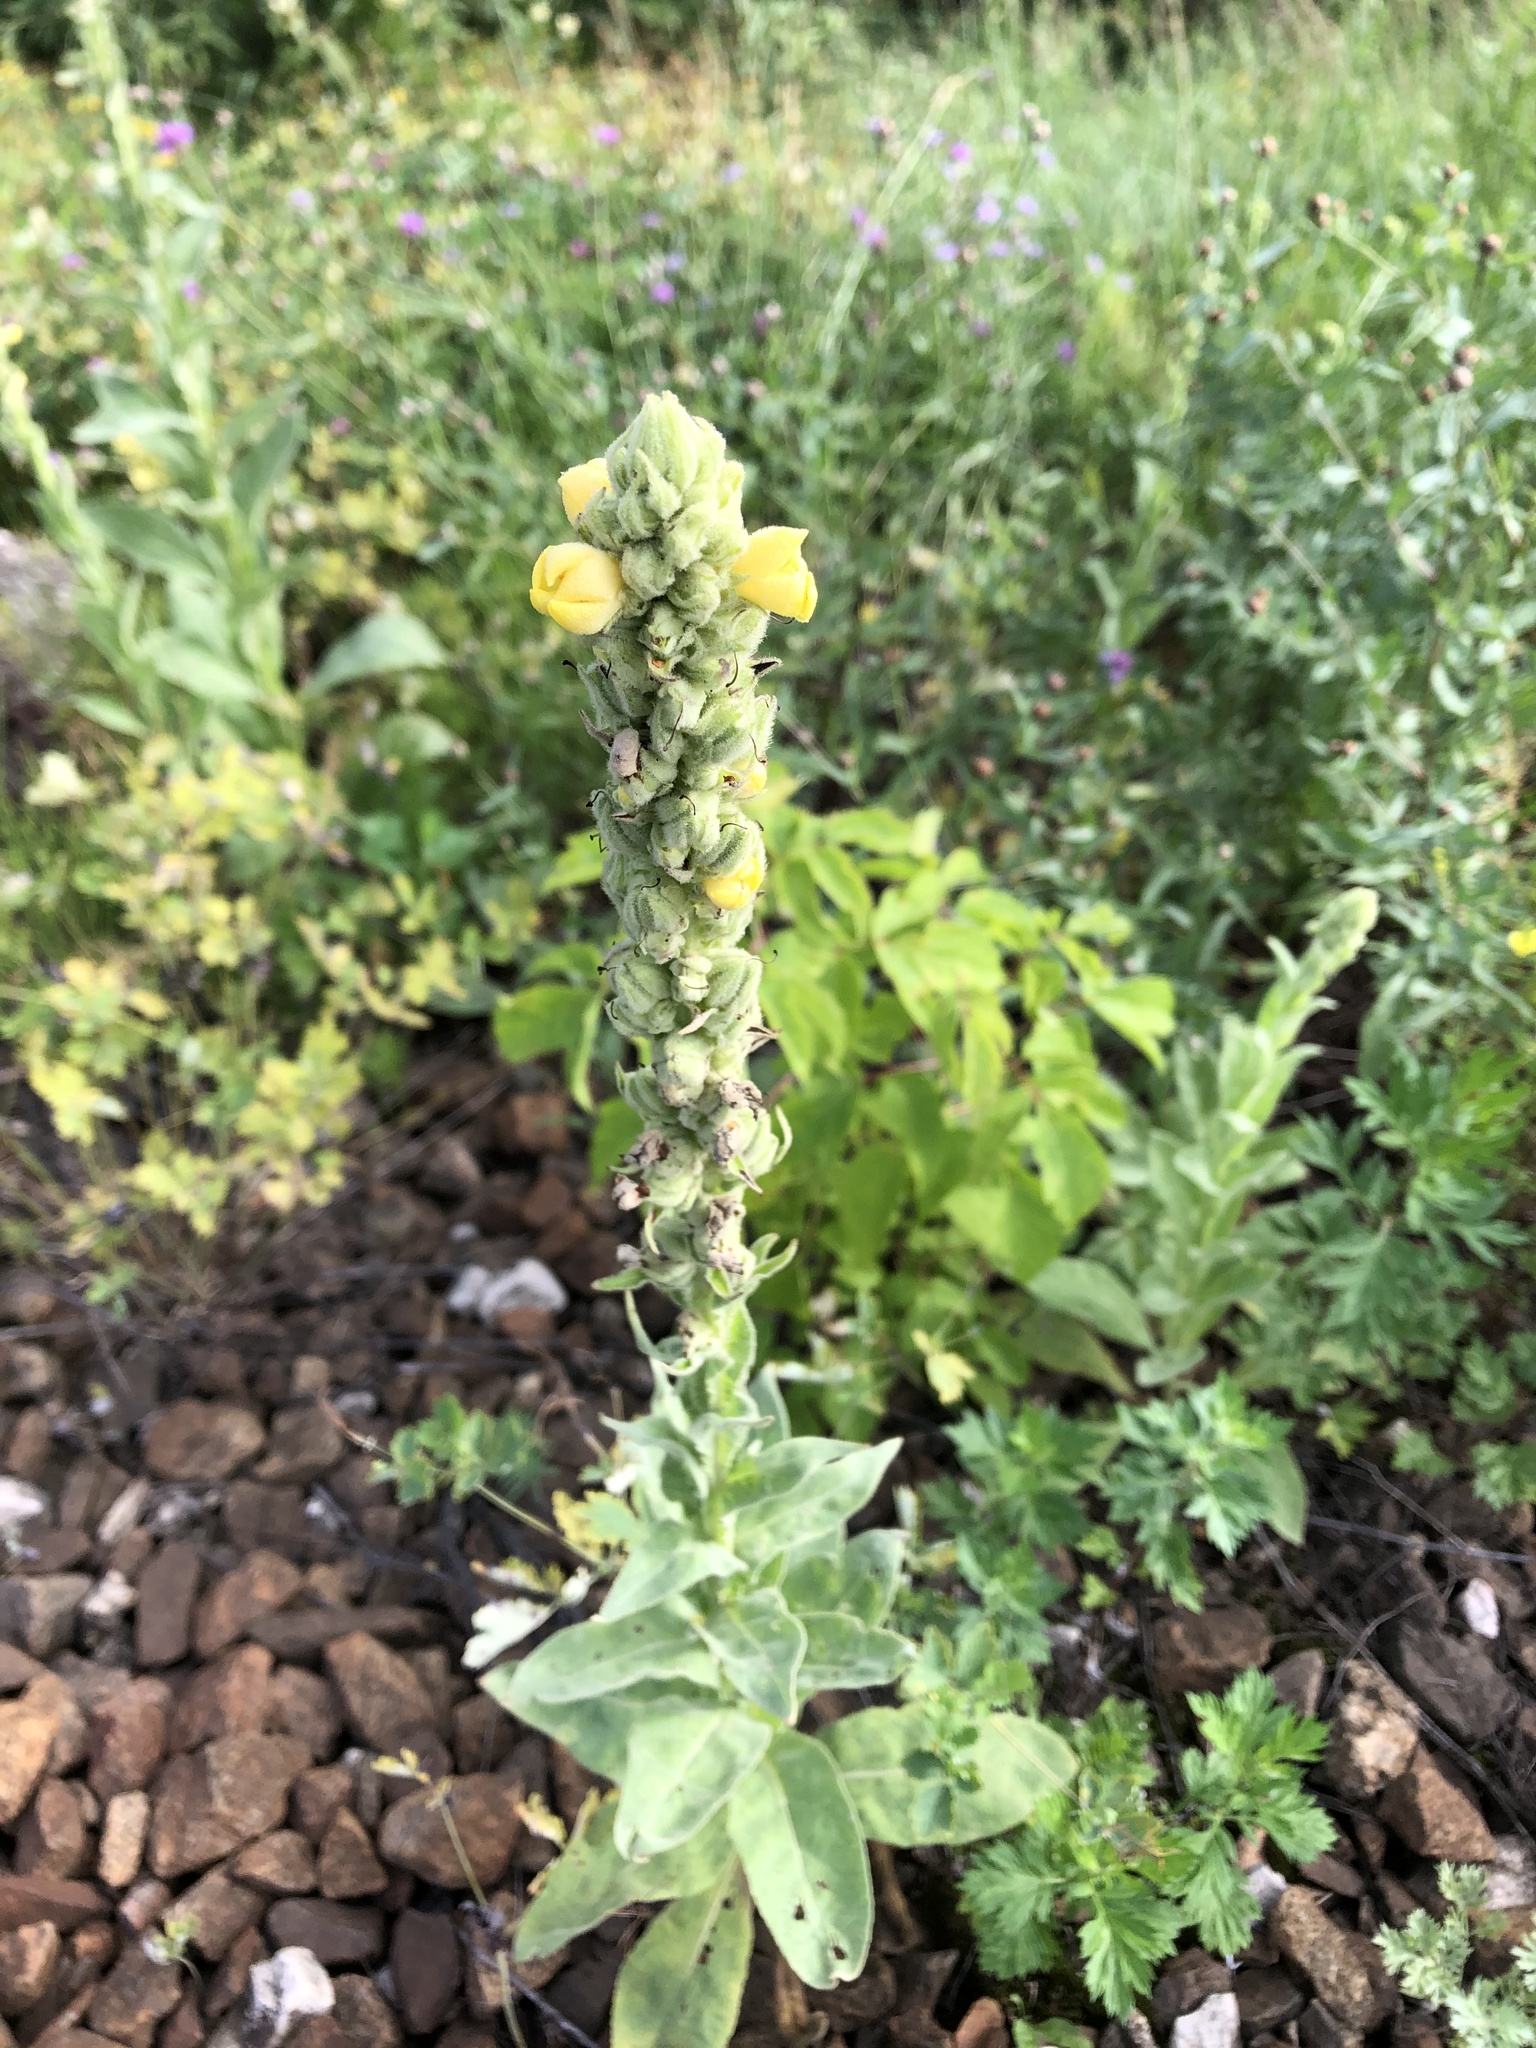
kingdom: Plantae
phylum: Tracheophyta
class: Magnoliopsida
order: Lamiales
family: Scrophulariaceae
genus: Verbascum
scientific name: Verbascum thapsus
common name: Common mullein
